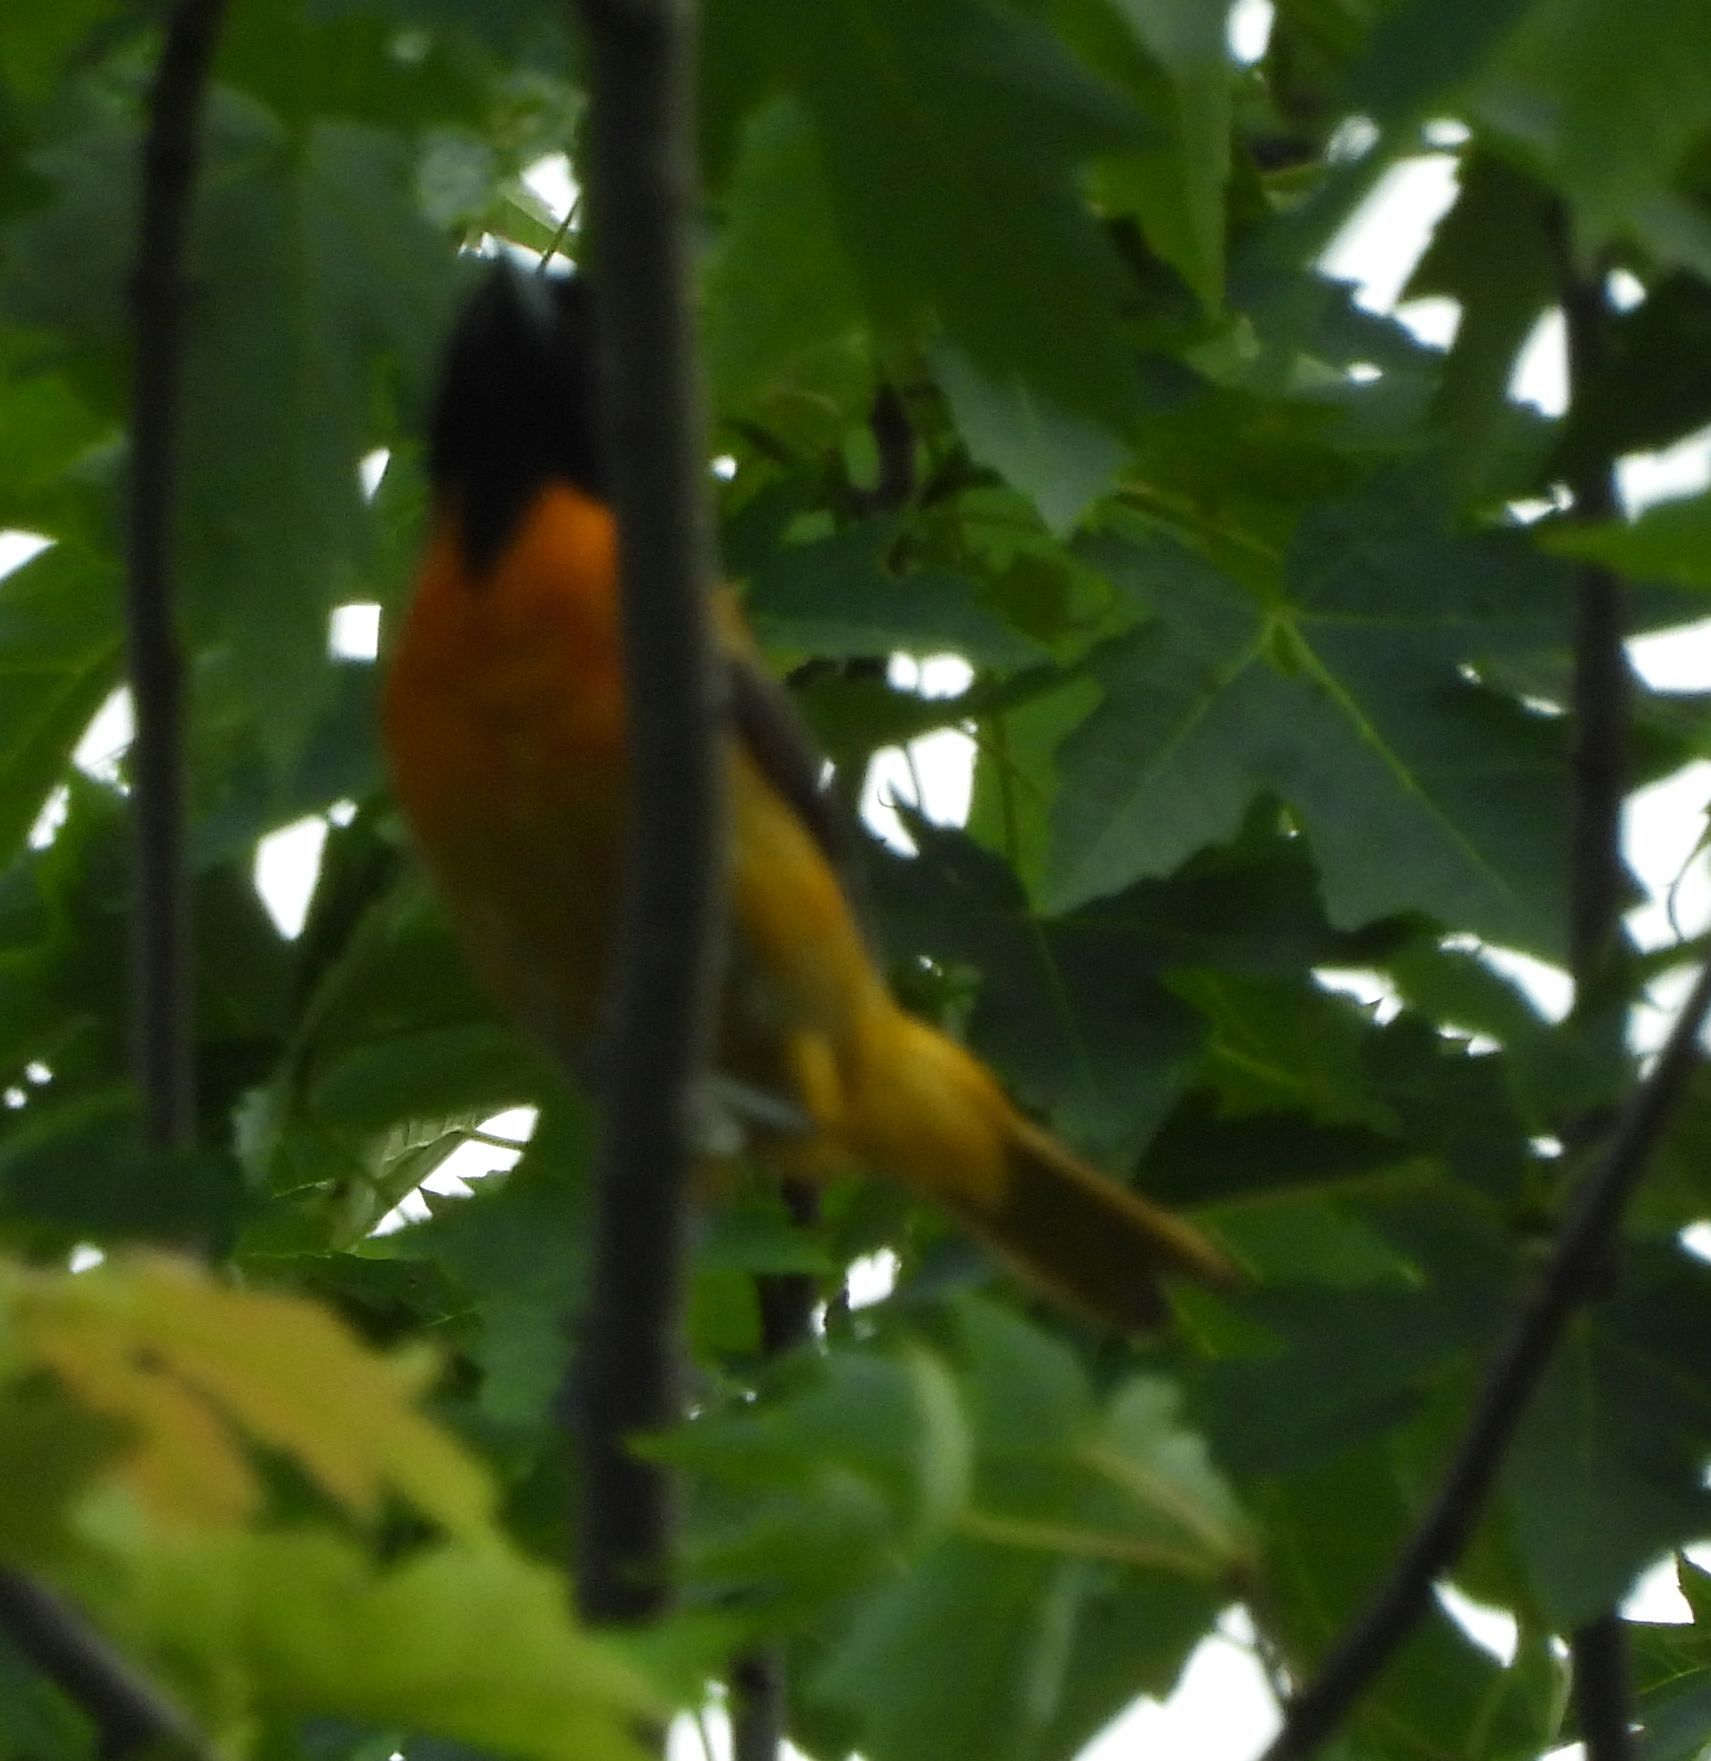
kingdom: Animalia
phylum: Chordata
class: Aves
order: Passeriformes
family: Icteridae
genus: Icterus
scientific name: Icterus galbula
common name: Baltimore oriole
